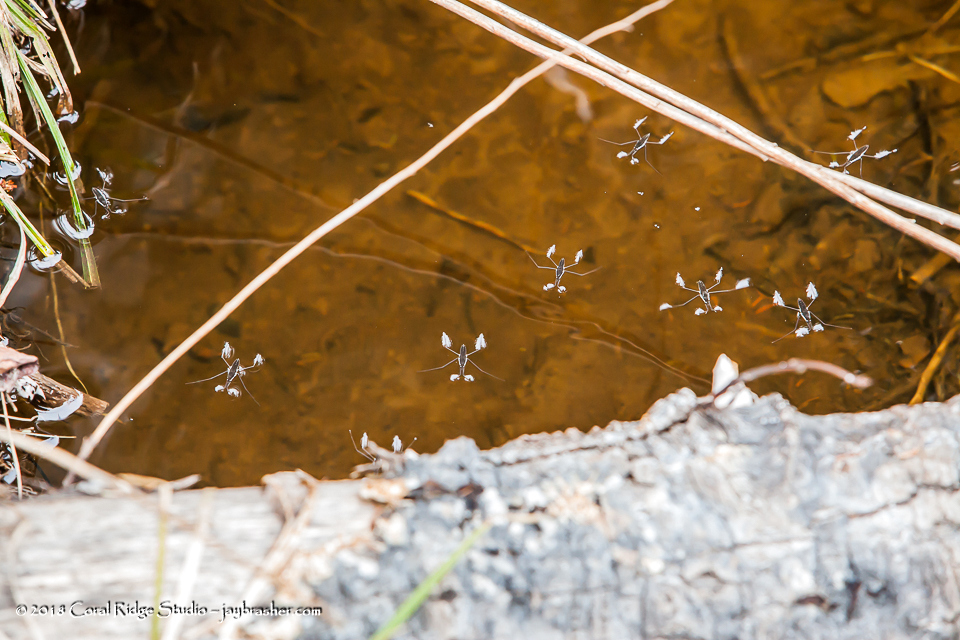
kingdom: Animalia
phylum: Arthropoda
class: Insecta
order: Hemiptera
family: Gerridae
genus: Aquarius
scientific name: Aquarius remigis
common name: Common water strider
